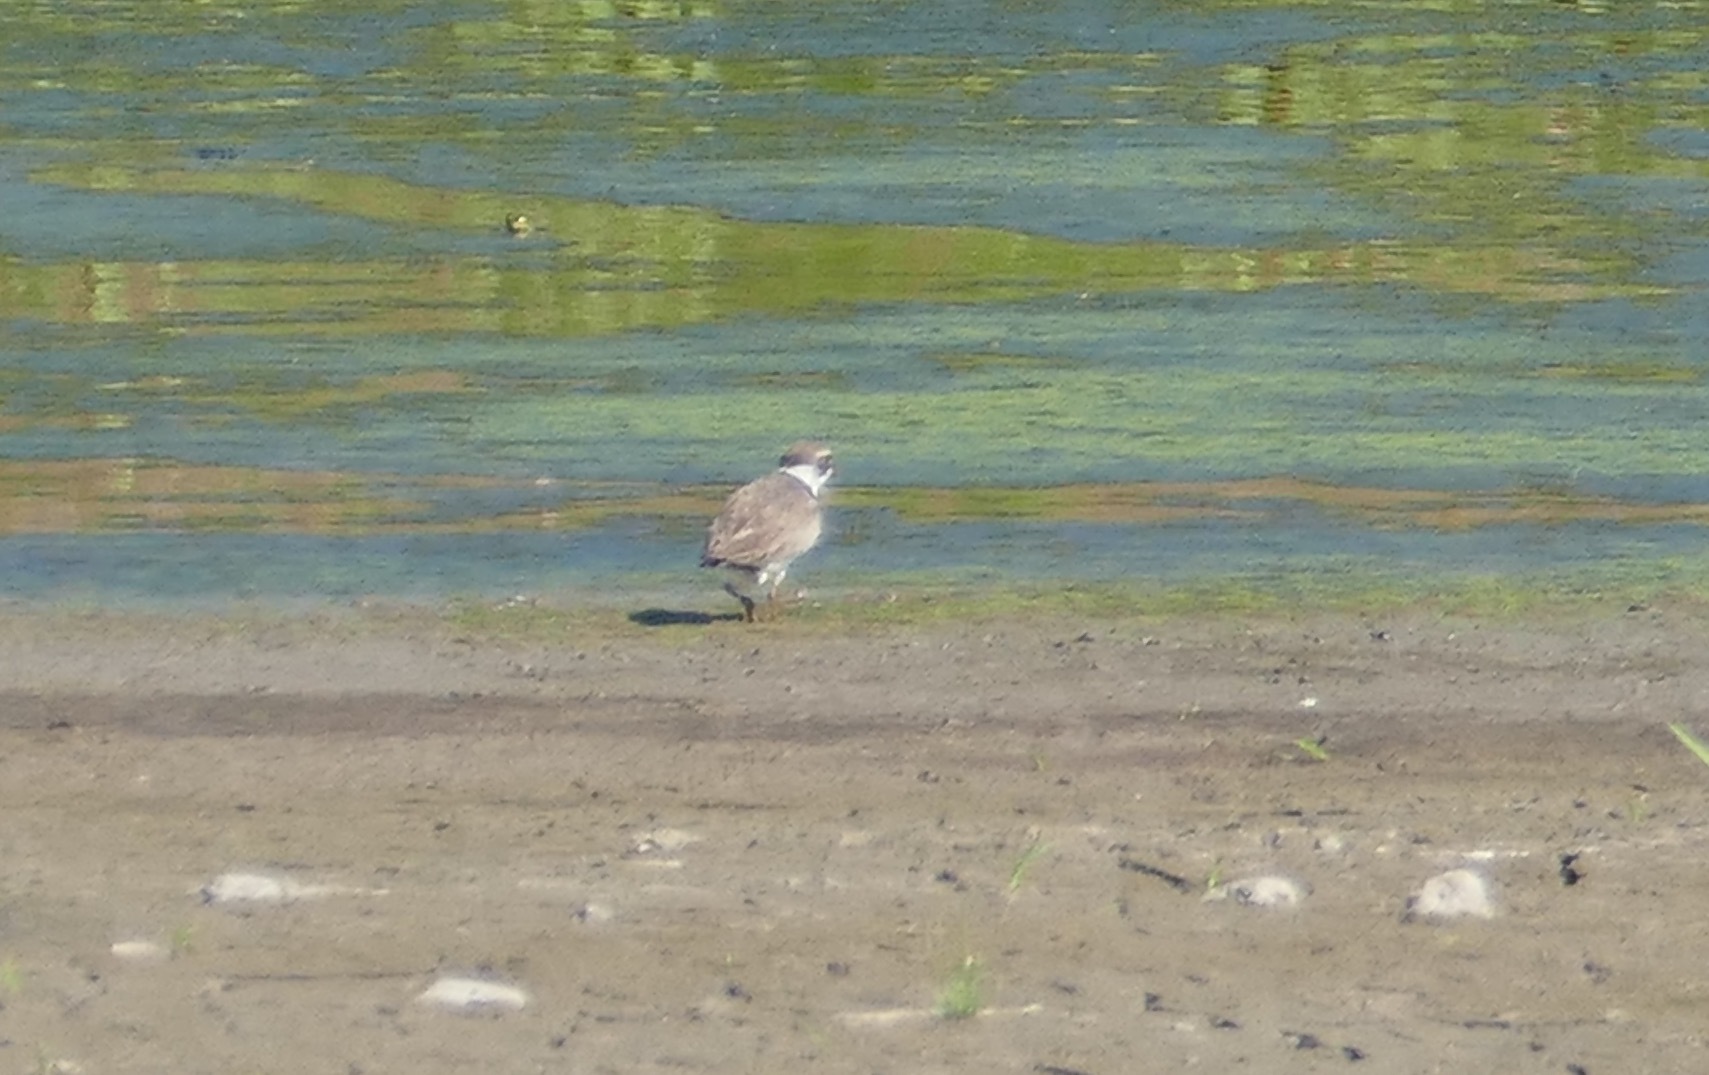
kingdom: Animalia
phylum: Chordata
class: Aves
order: Charadriiformes
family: Charadriidae
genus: Charadrius
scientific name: Charadrius vociferus
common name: Killdeer
